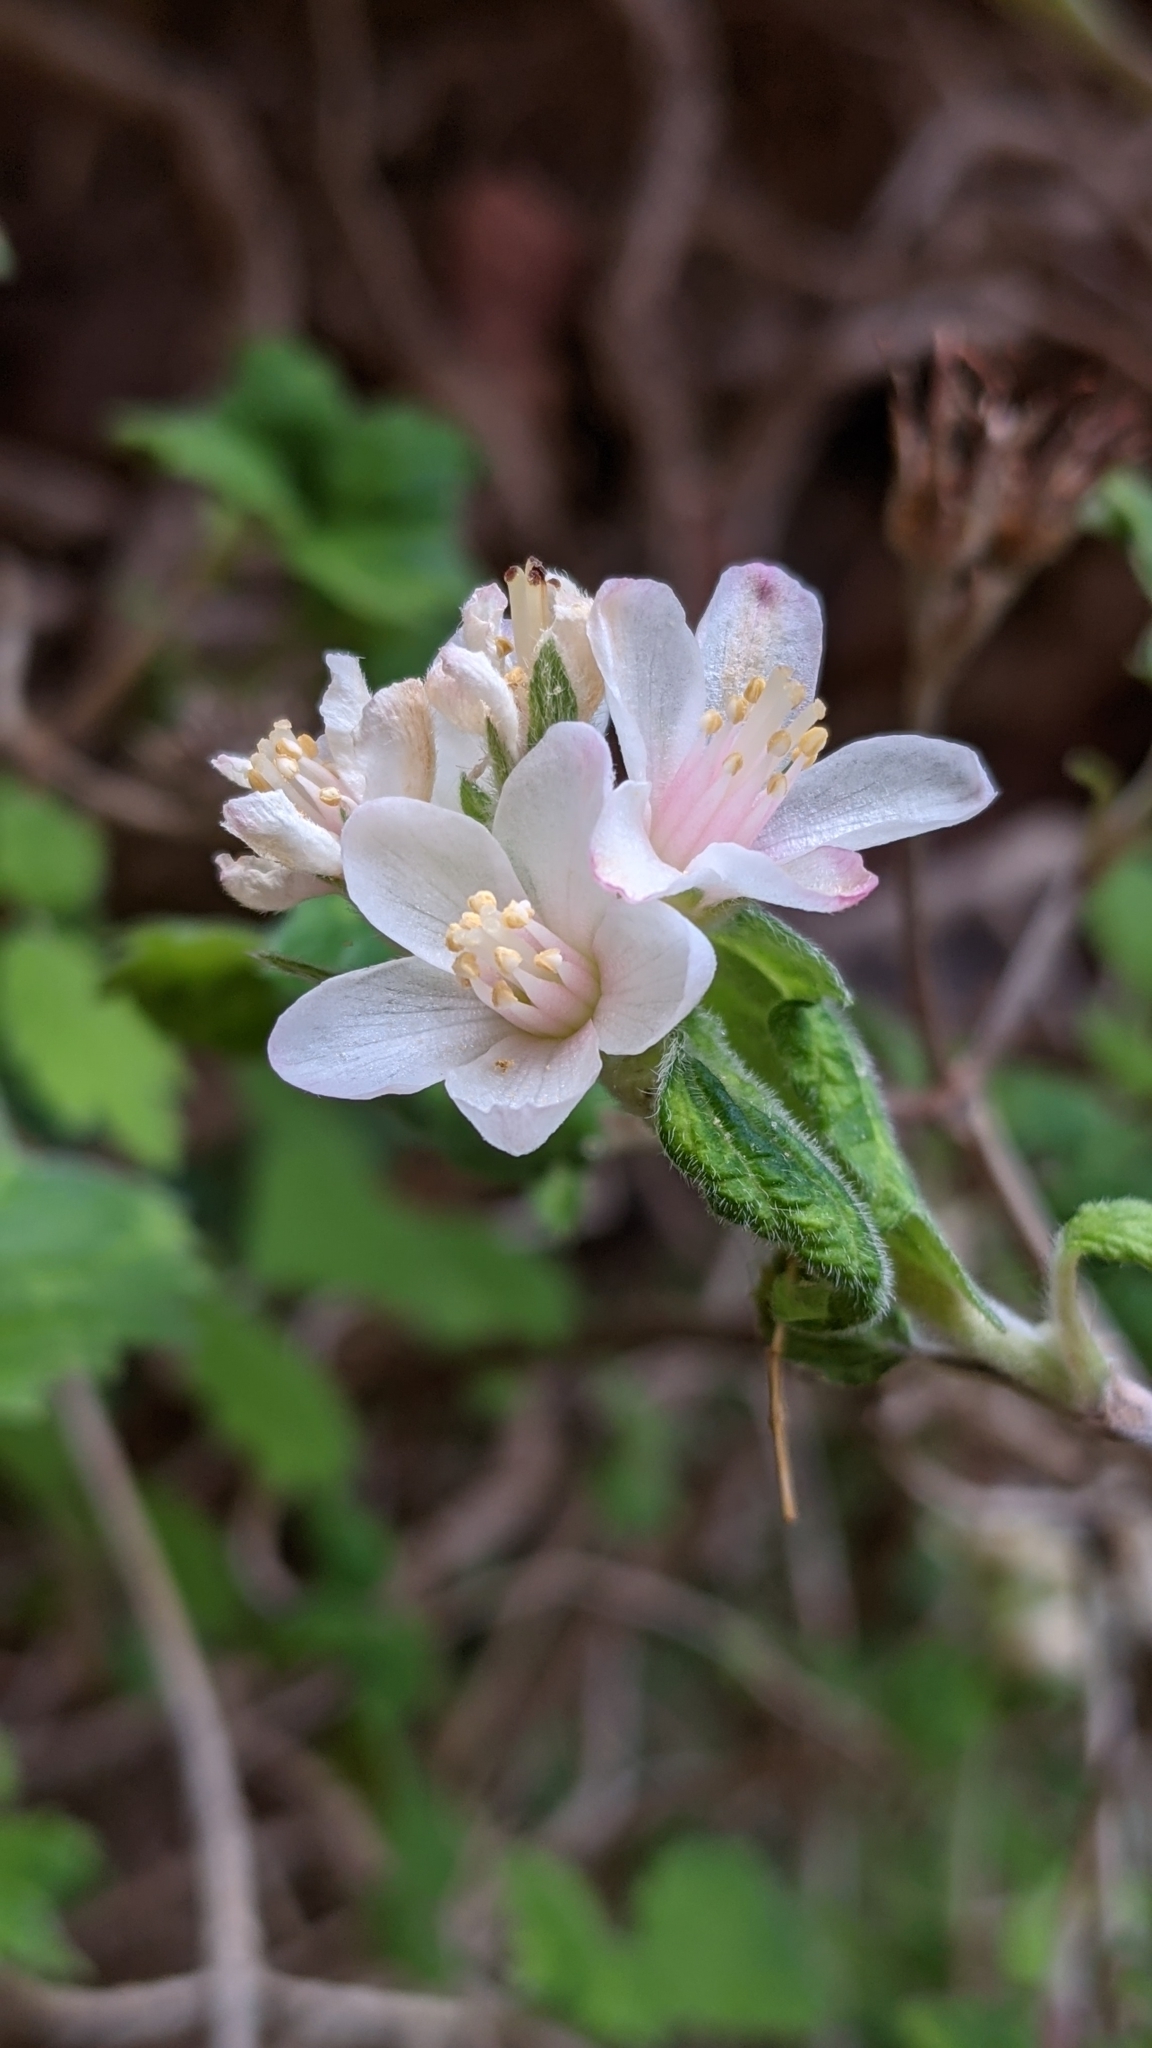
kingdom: Plantae
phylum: Tracheophyta
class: Magnoliopsida
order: Cornales
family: Hydrangeaceae
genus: Jamesia
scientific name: Jamesia americana
